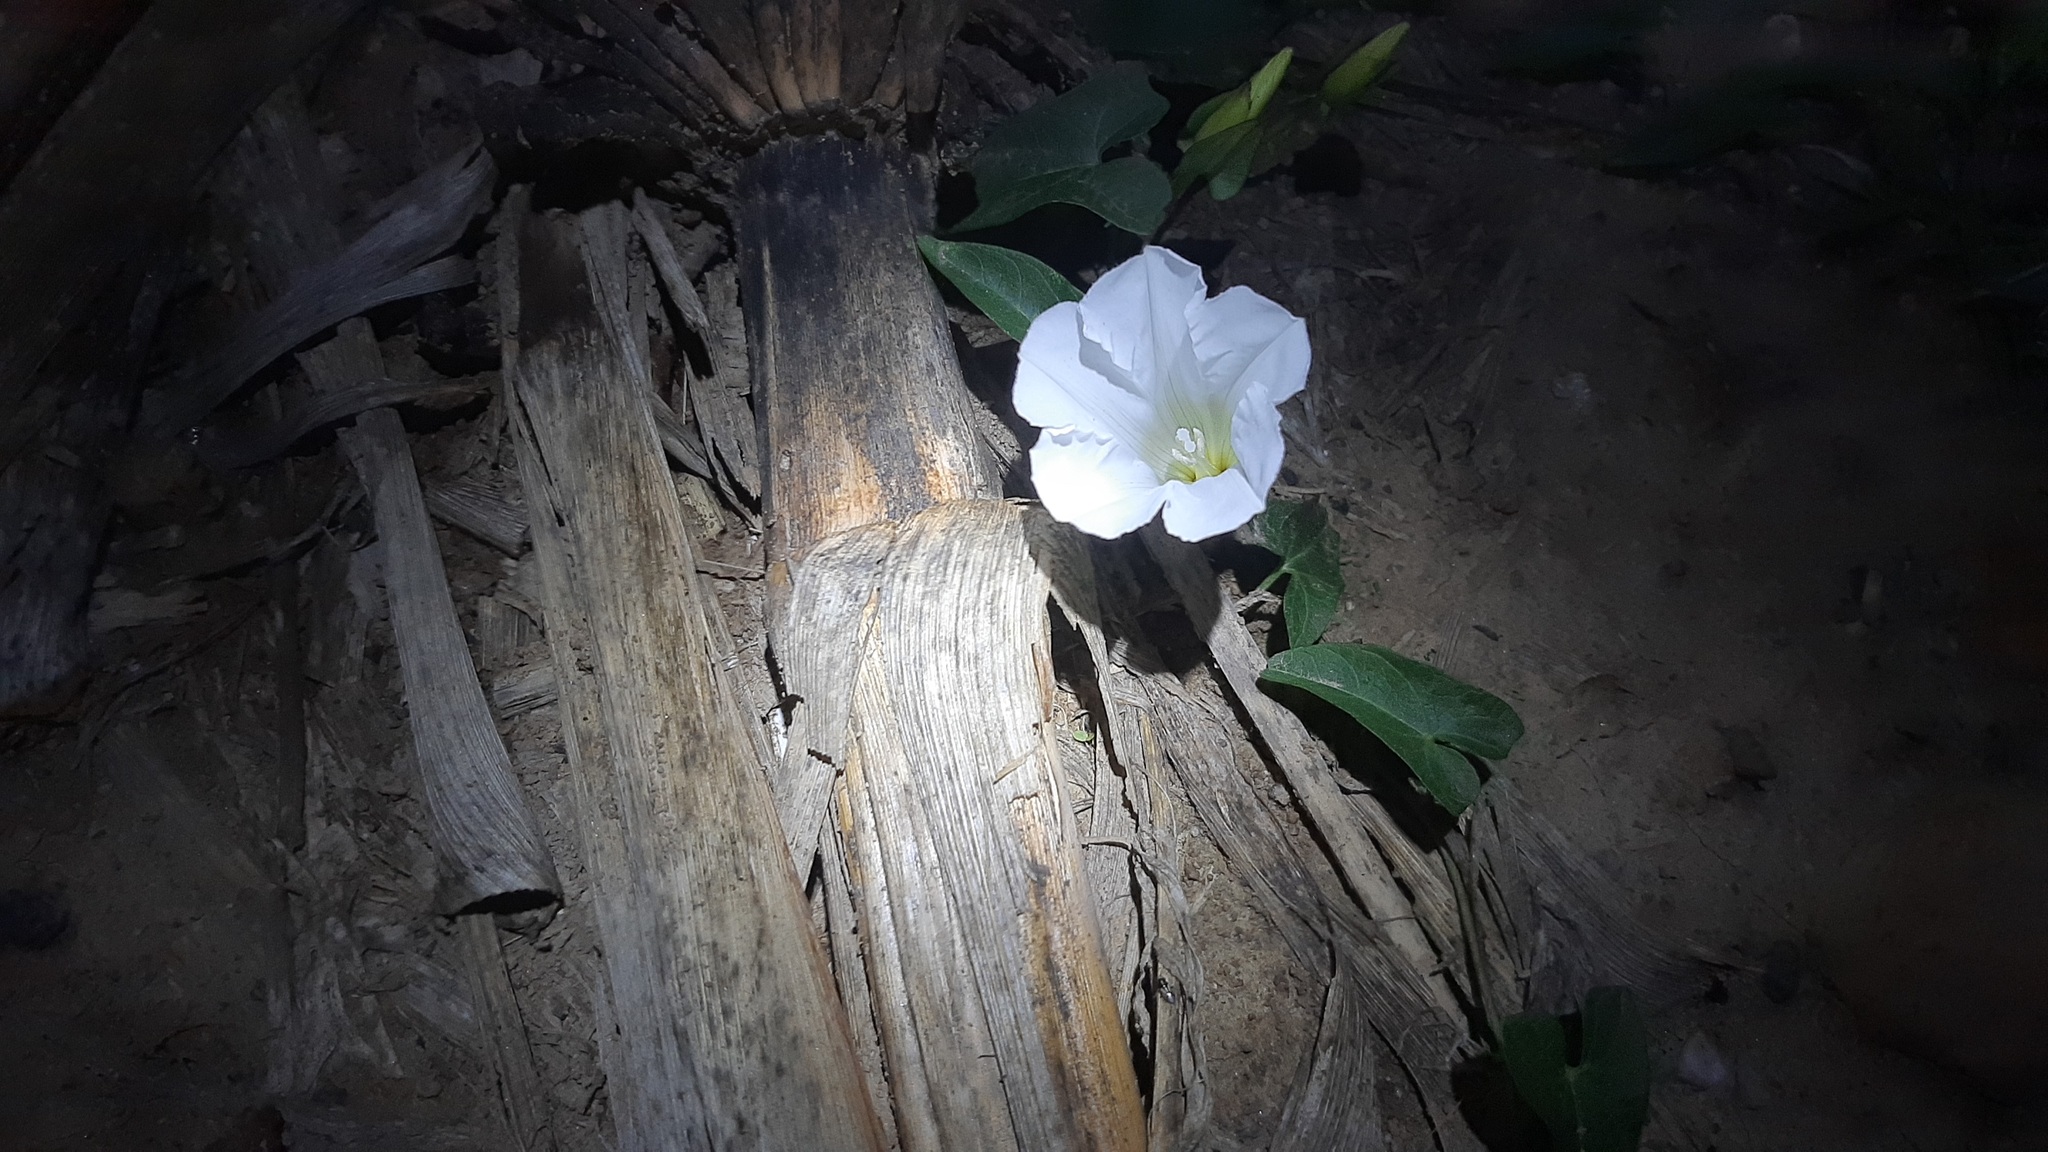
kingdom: Plantae
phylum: Tracheophyta
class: Magnoliopsida
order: Solanales
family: Convolvulaceae
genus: Calystegia
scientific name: Calystegia sepium
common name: Hedge bindweed
